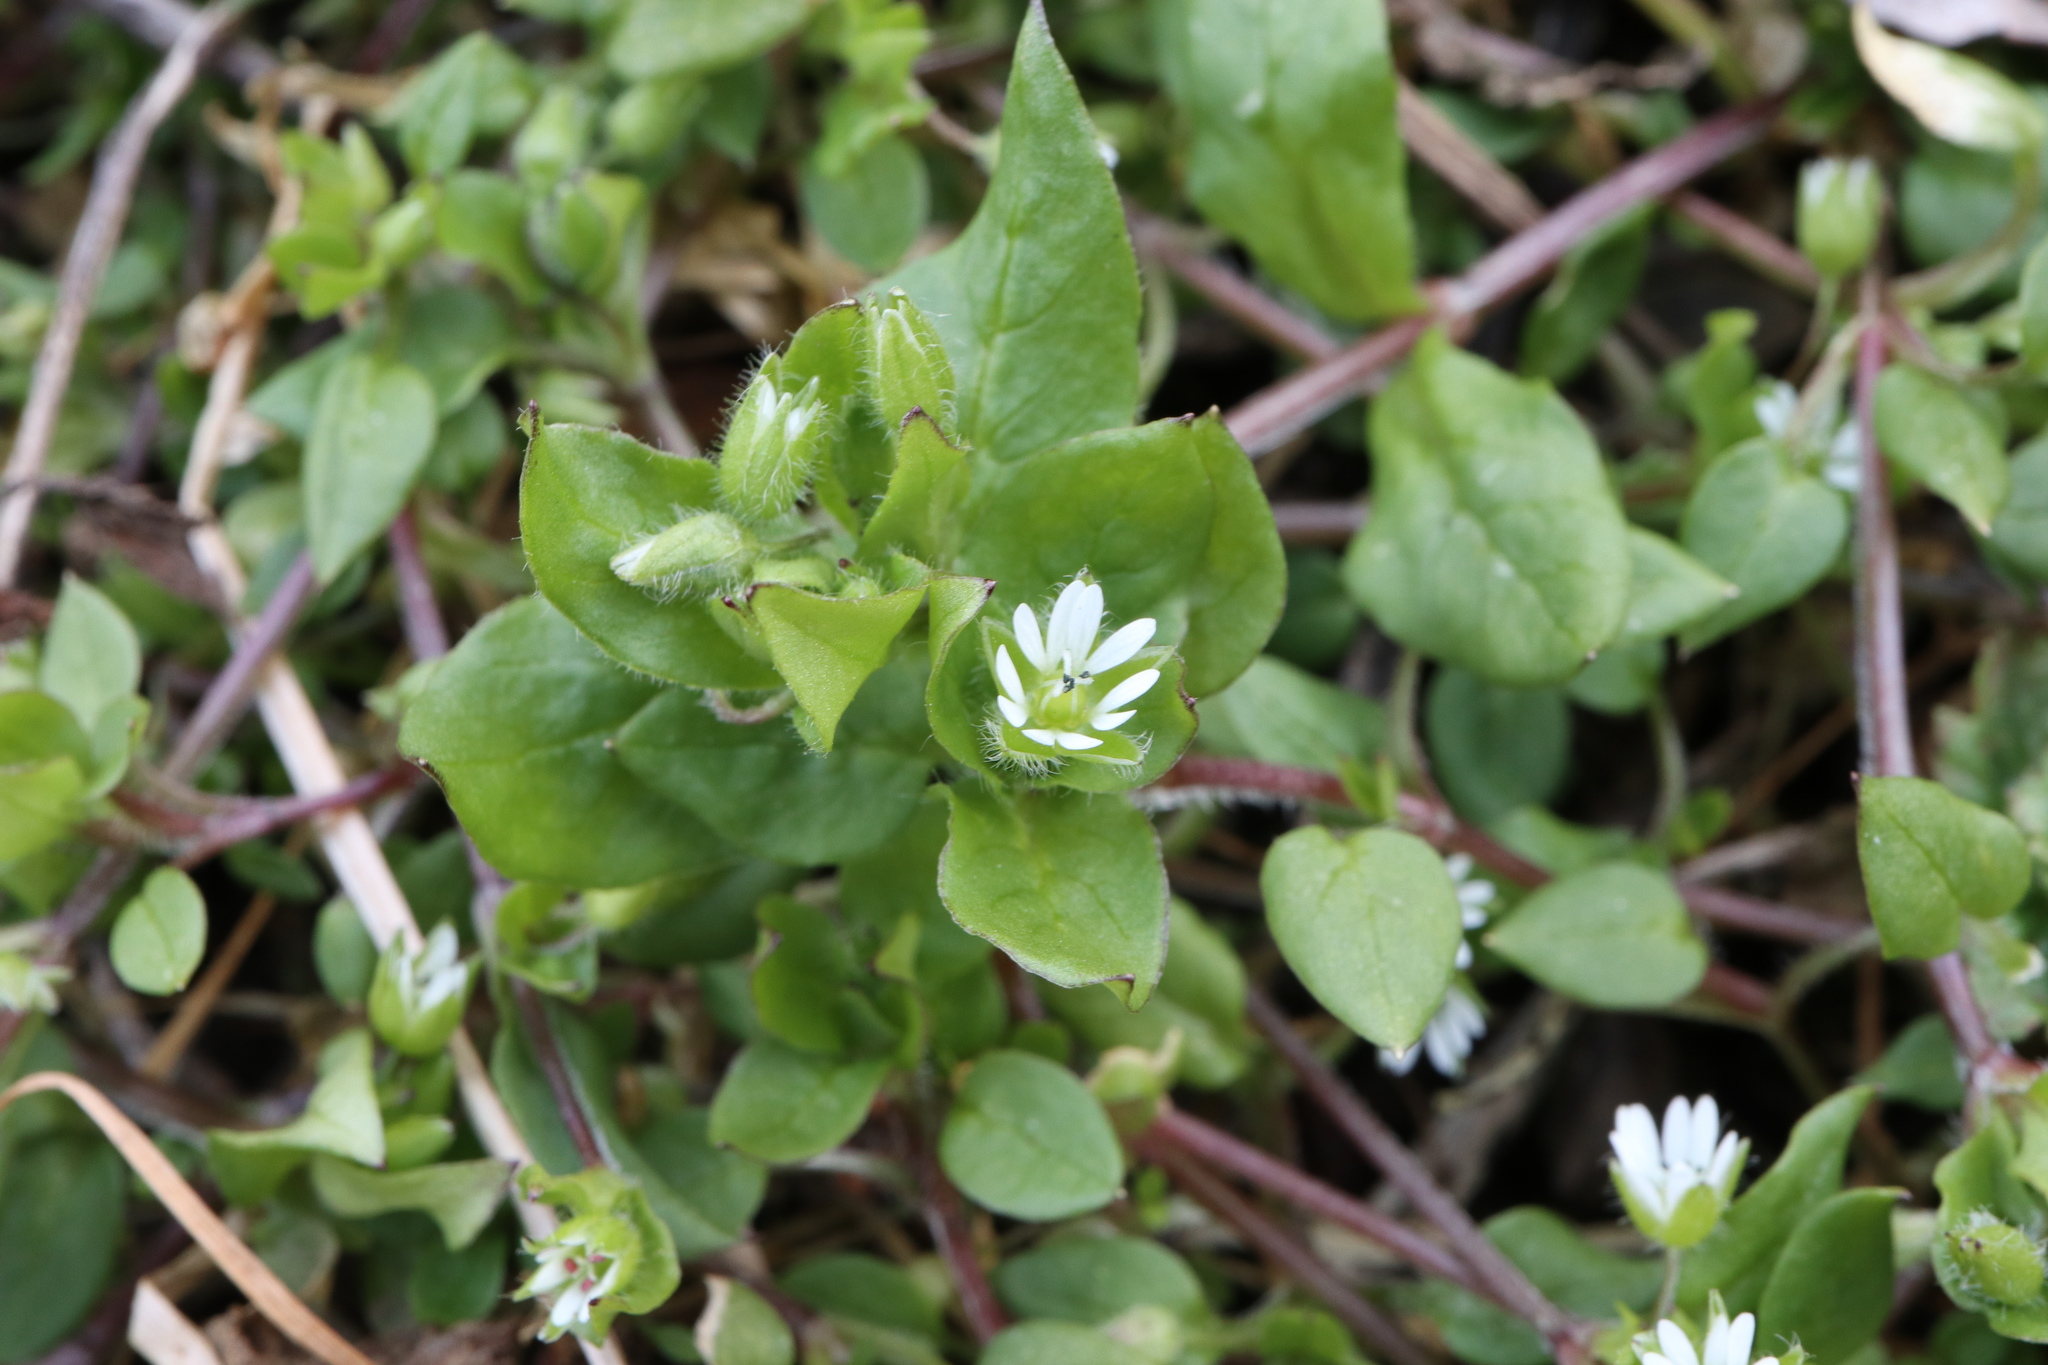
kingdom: Plantae
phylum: Tracheophyta
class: Magnoliopsida
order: Caryophyllales
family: Caryophyllaceae
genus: Stellaria
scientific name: Stellaria media
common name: Common chickweed
